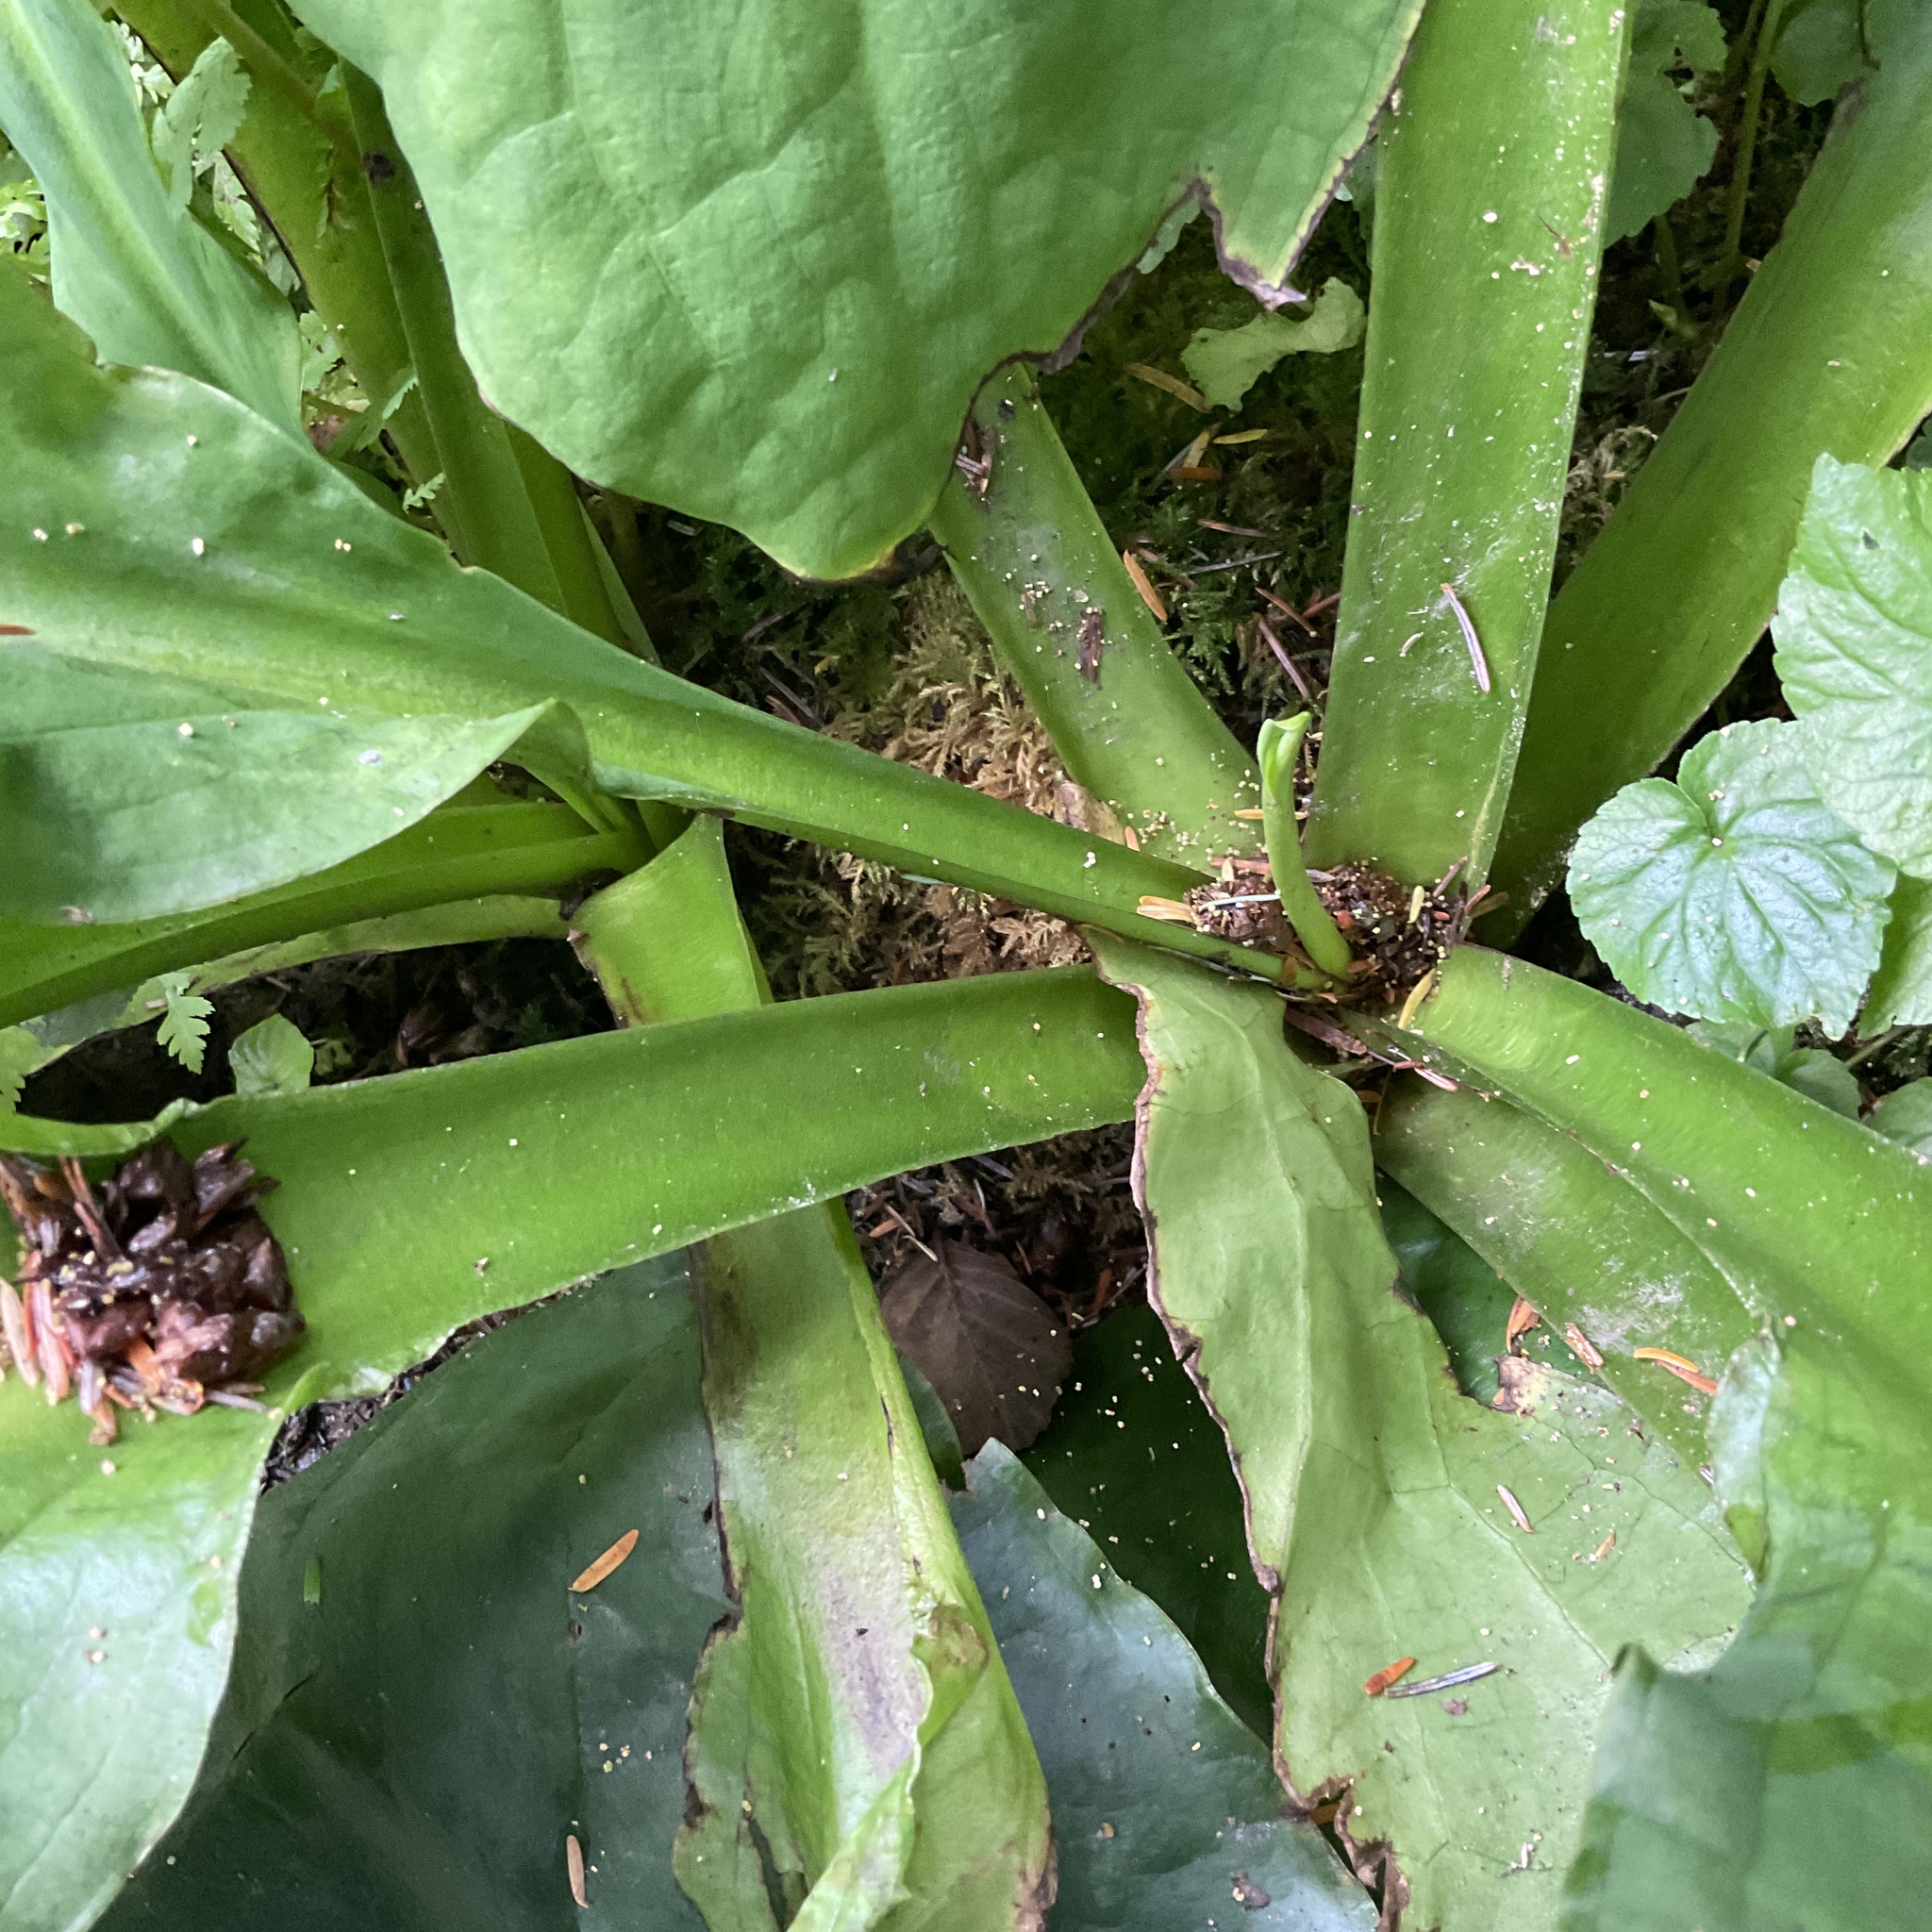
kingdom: Plantae
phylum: Tracheophyta
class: Liliopsida
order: Alismatales
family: Araceae
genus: Lysichiton
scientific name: Lysichiton americanus
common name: American skunk cabbage
